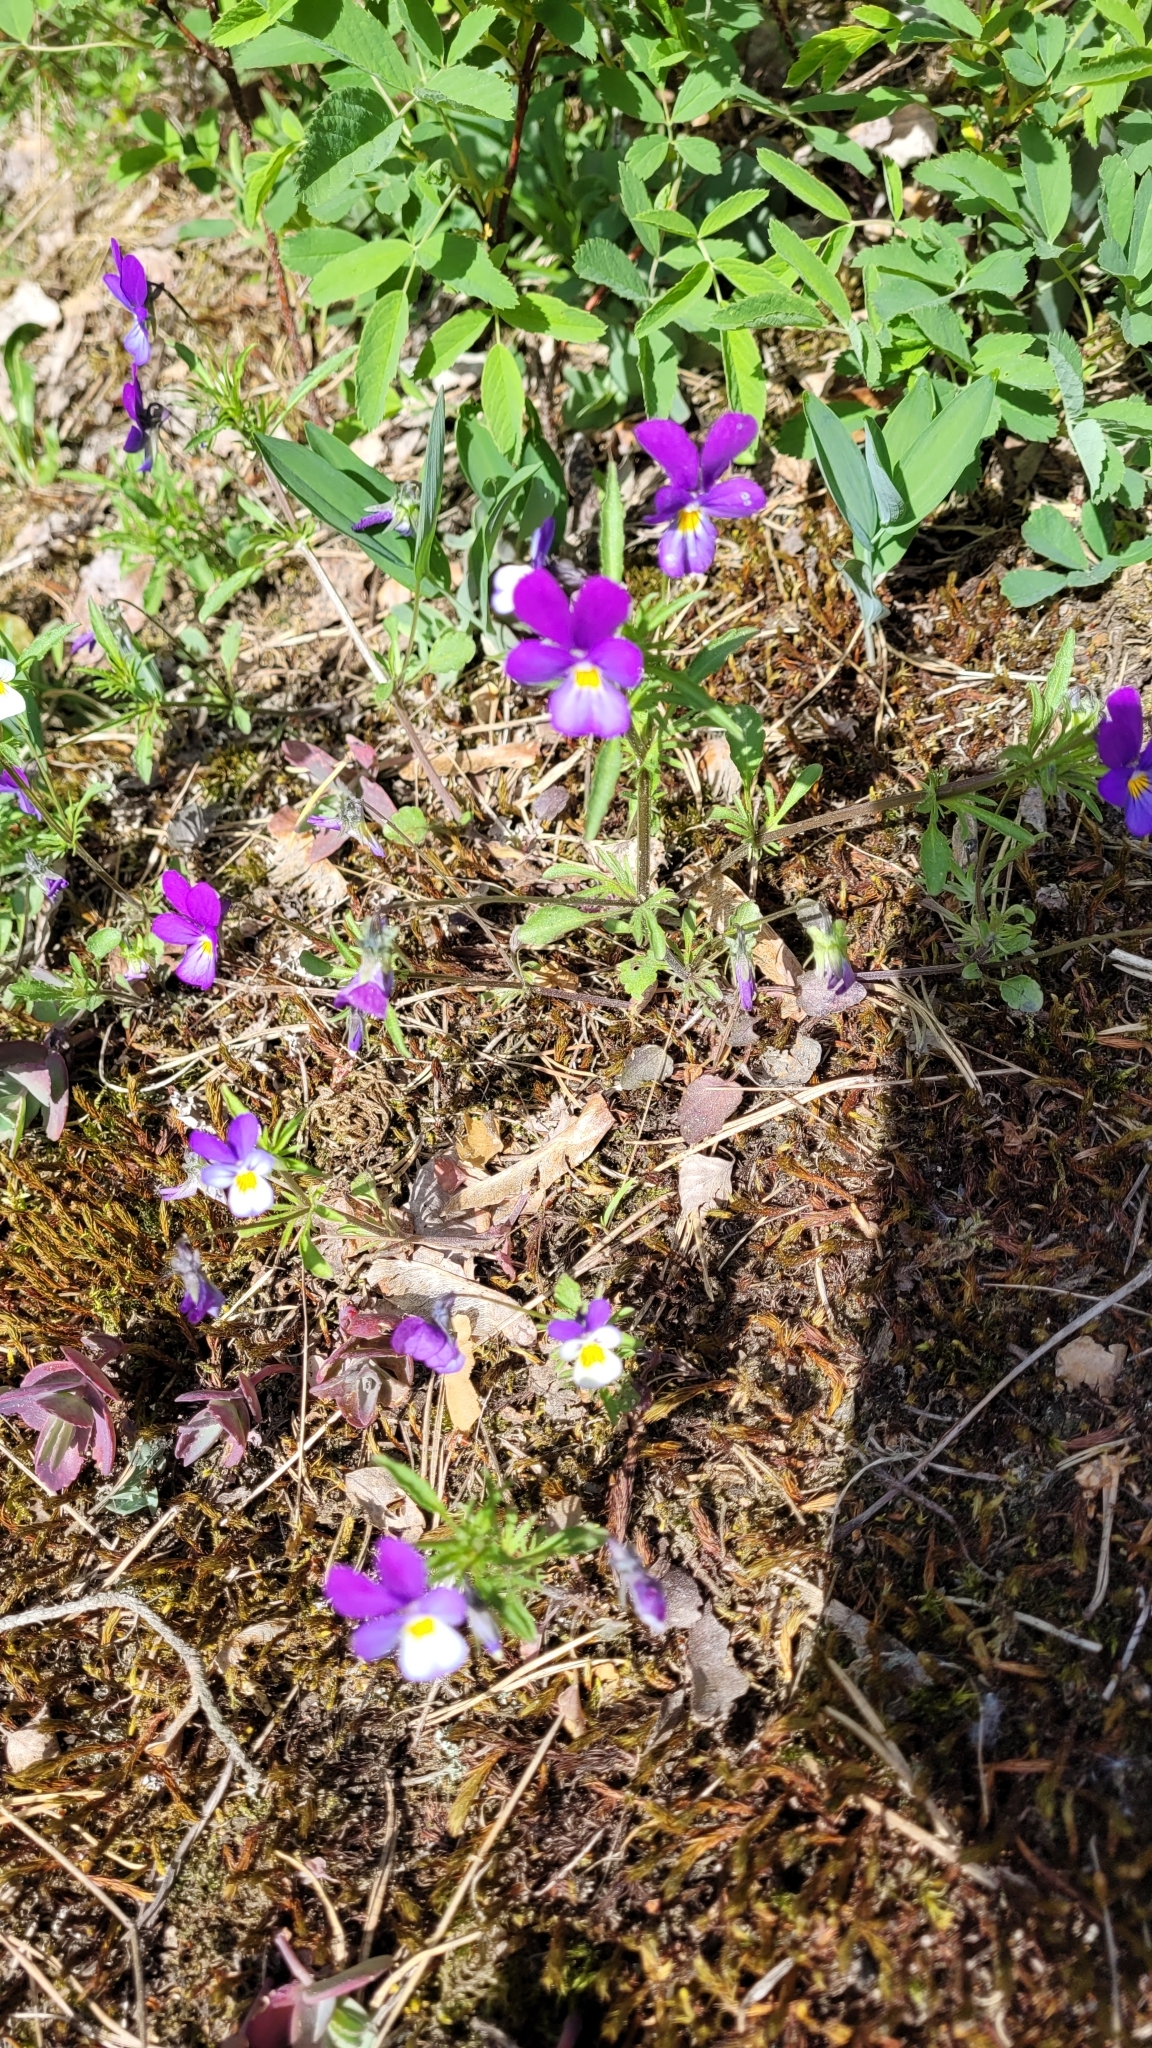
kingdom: Plantae
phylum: Tracheophyta
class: Magnoliopsida
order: Malpighiales
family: Violaceae
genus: Viola
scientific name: Viola tricolor
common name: Pansy
